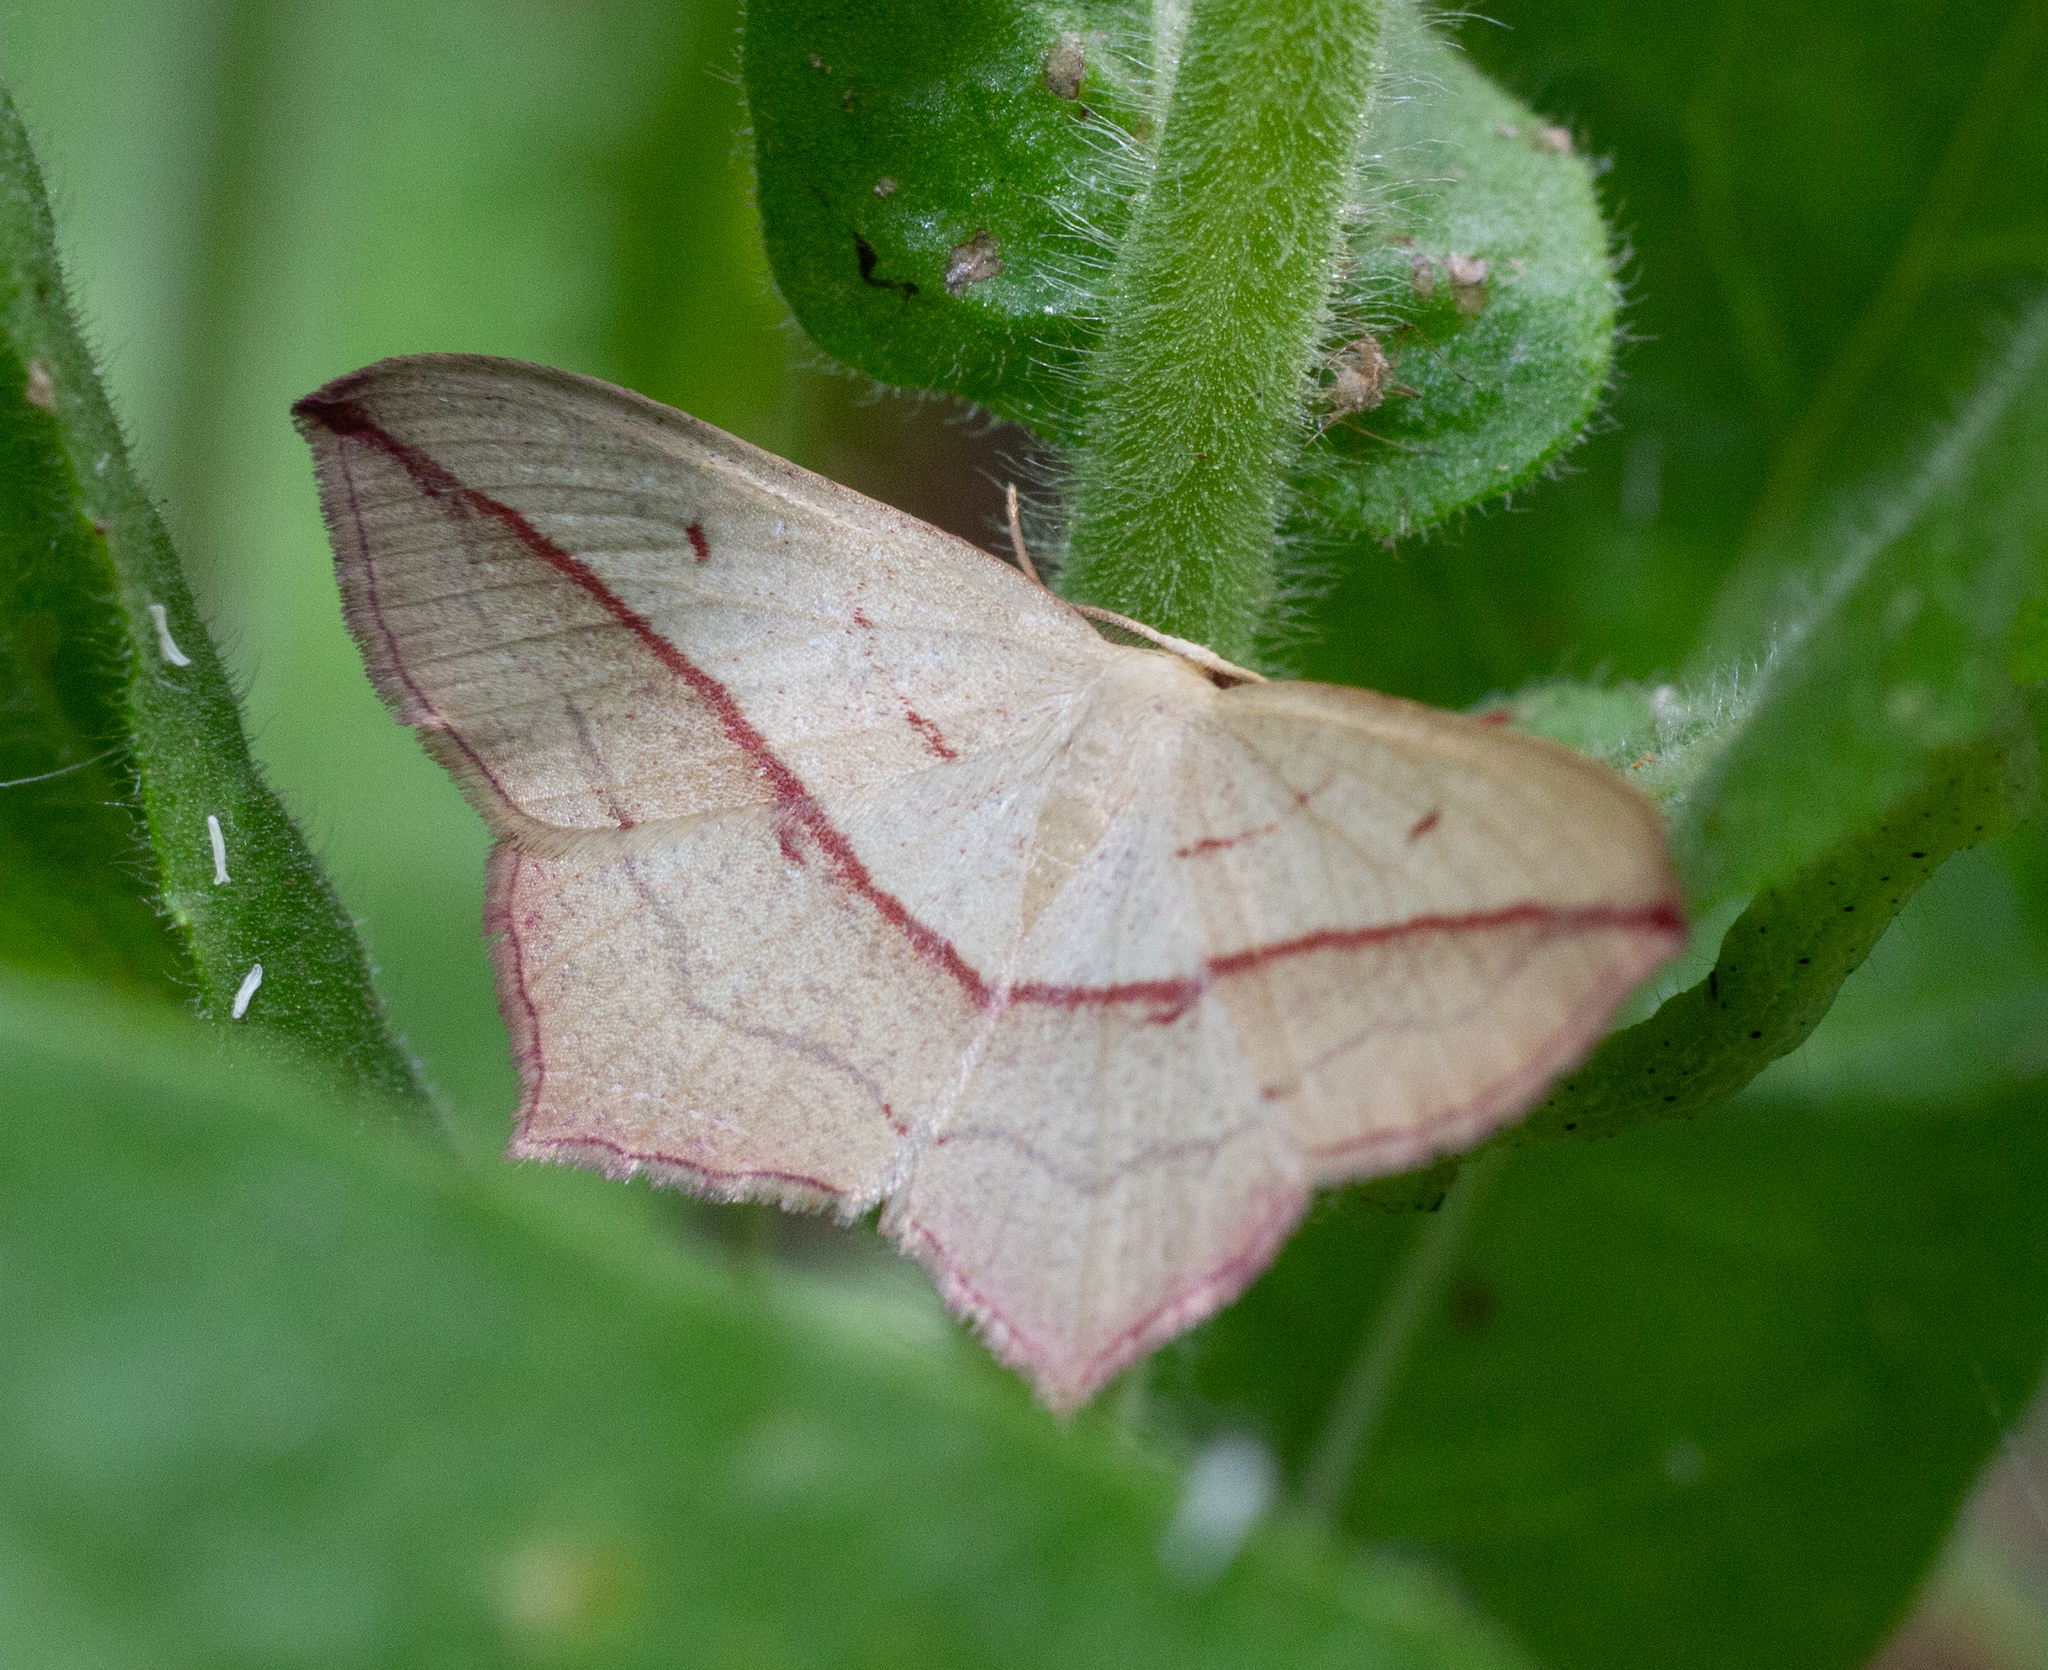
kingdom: Animalia
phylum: Arthropoda
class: Insecta
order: Lepidoptera
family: Geometridae
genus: Timandra
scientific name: Timandra comae
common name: Blood-vein
